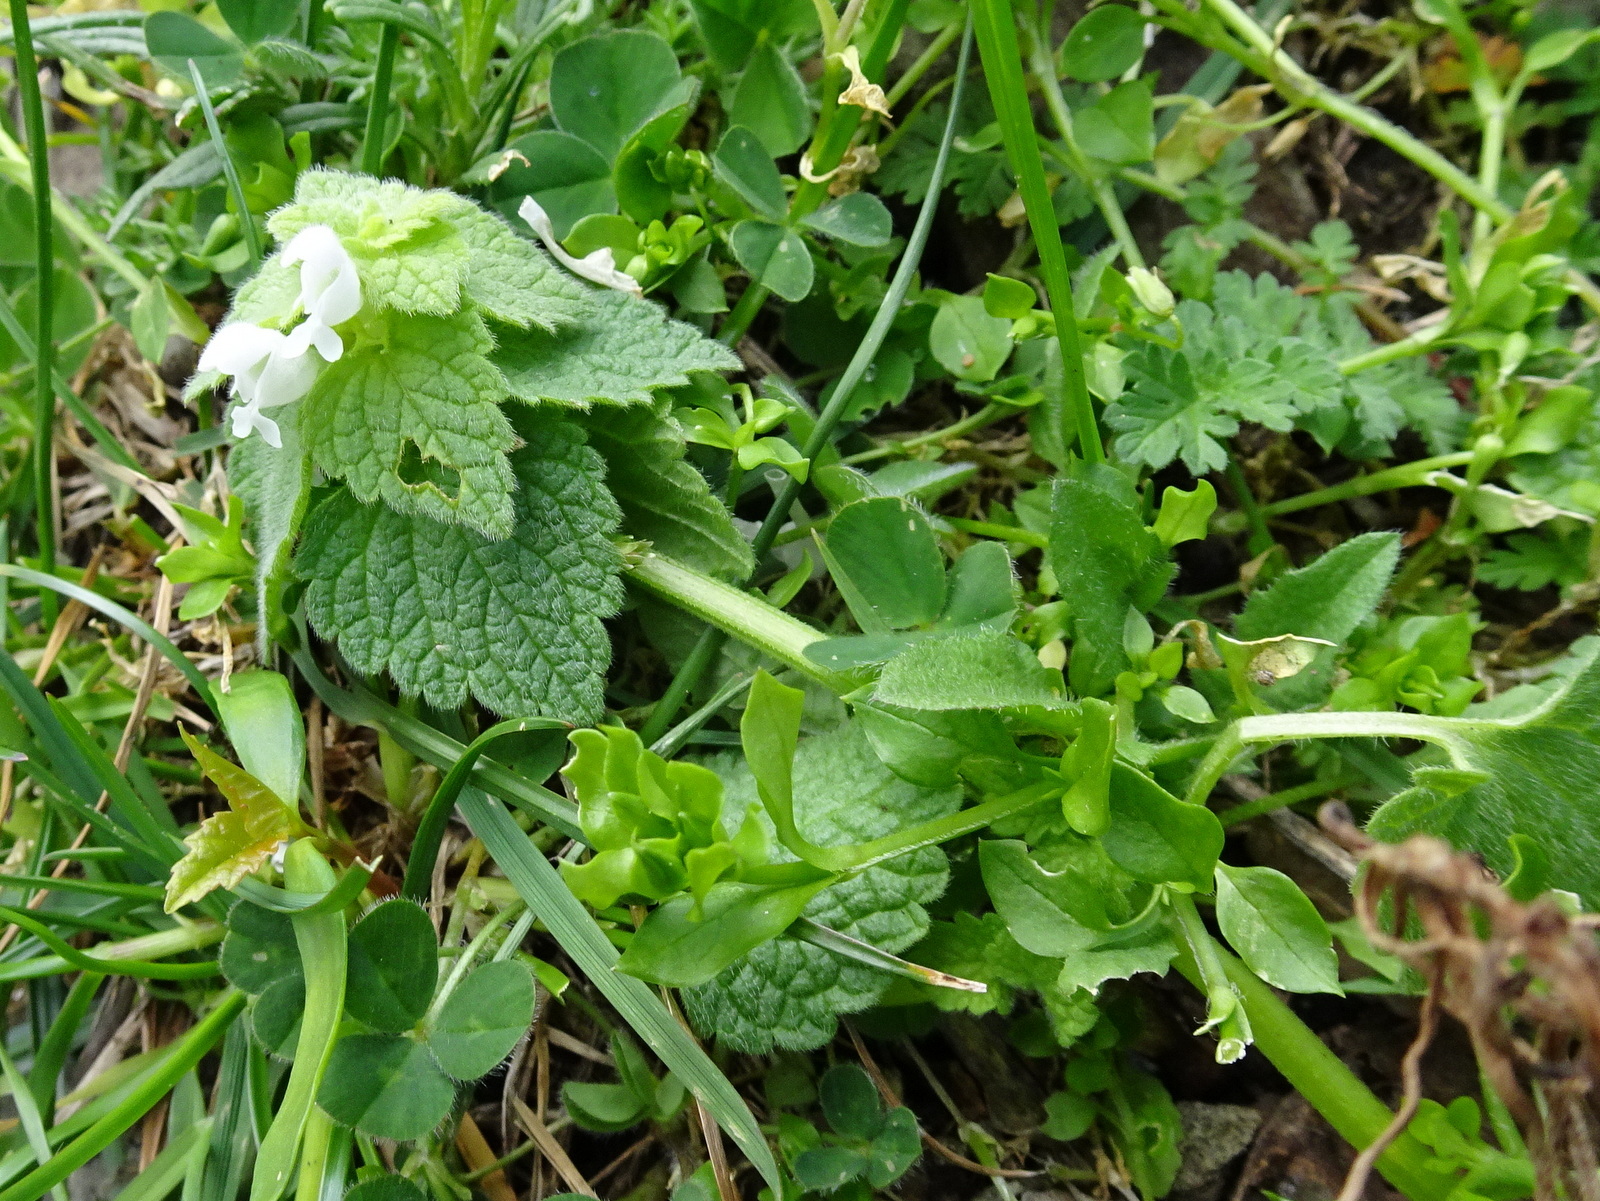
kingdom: Plantae
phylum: Tracheophyta
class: Magnoliopsida
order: Lamiales
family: Lamiaceae
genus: Lamium
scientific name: Lamium purpureum
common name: Red dead-nettle
